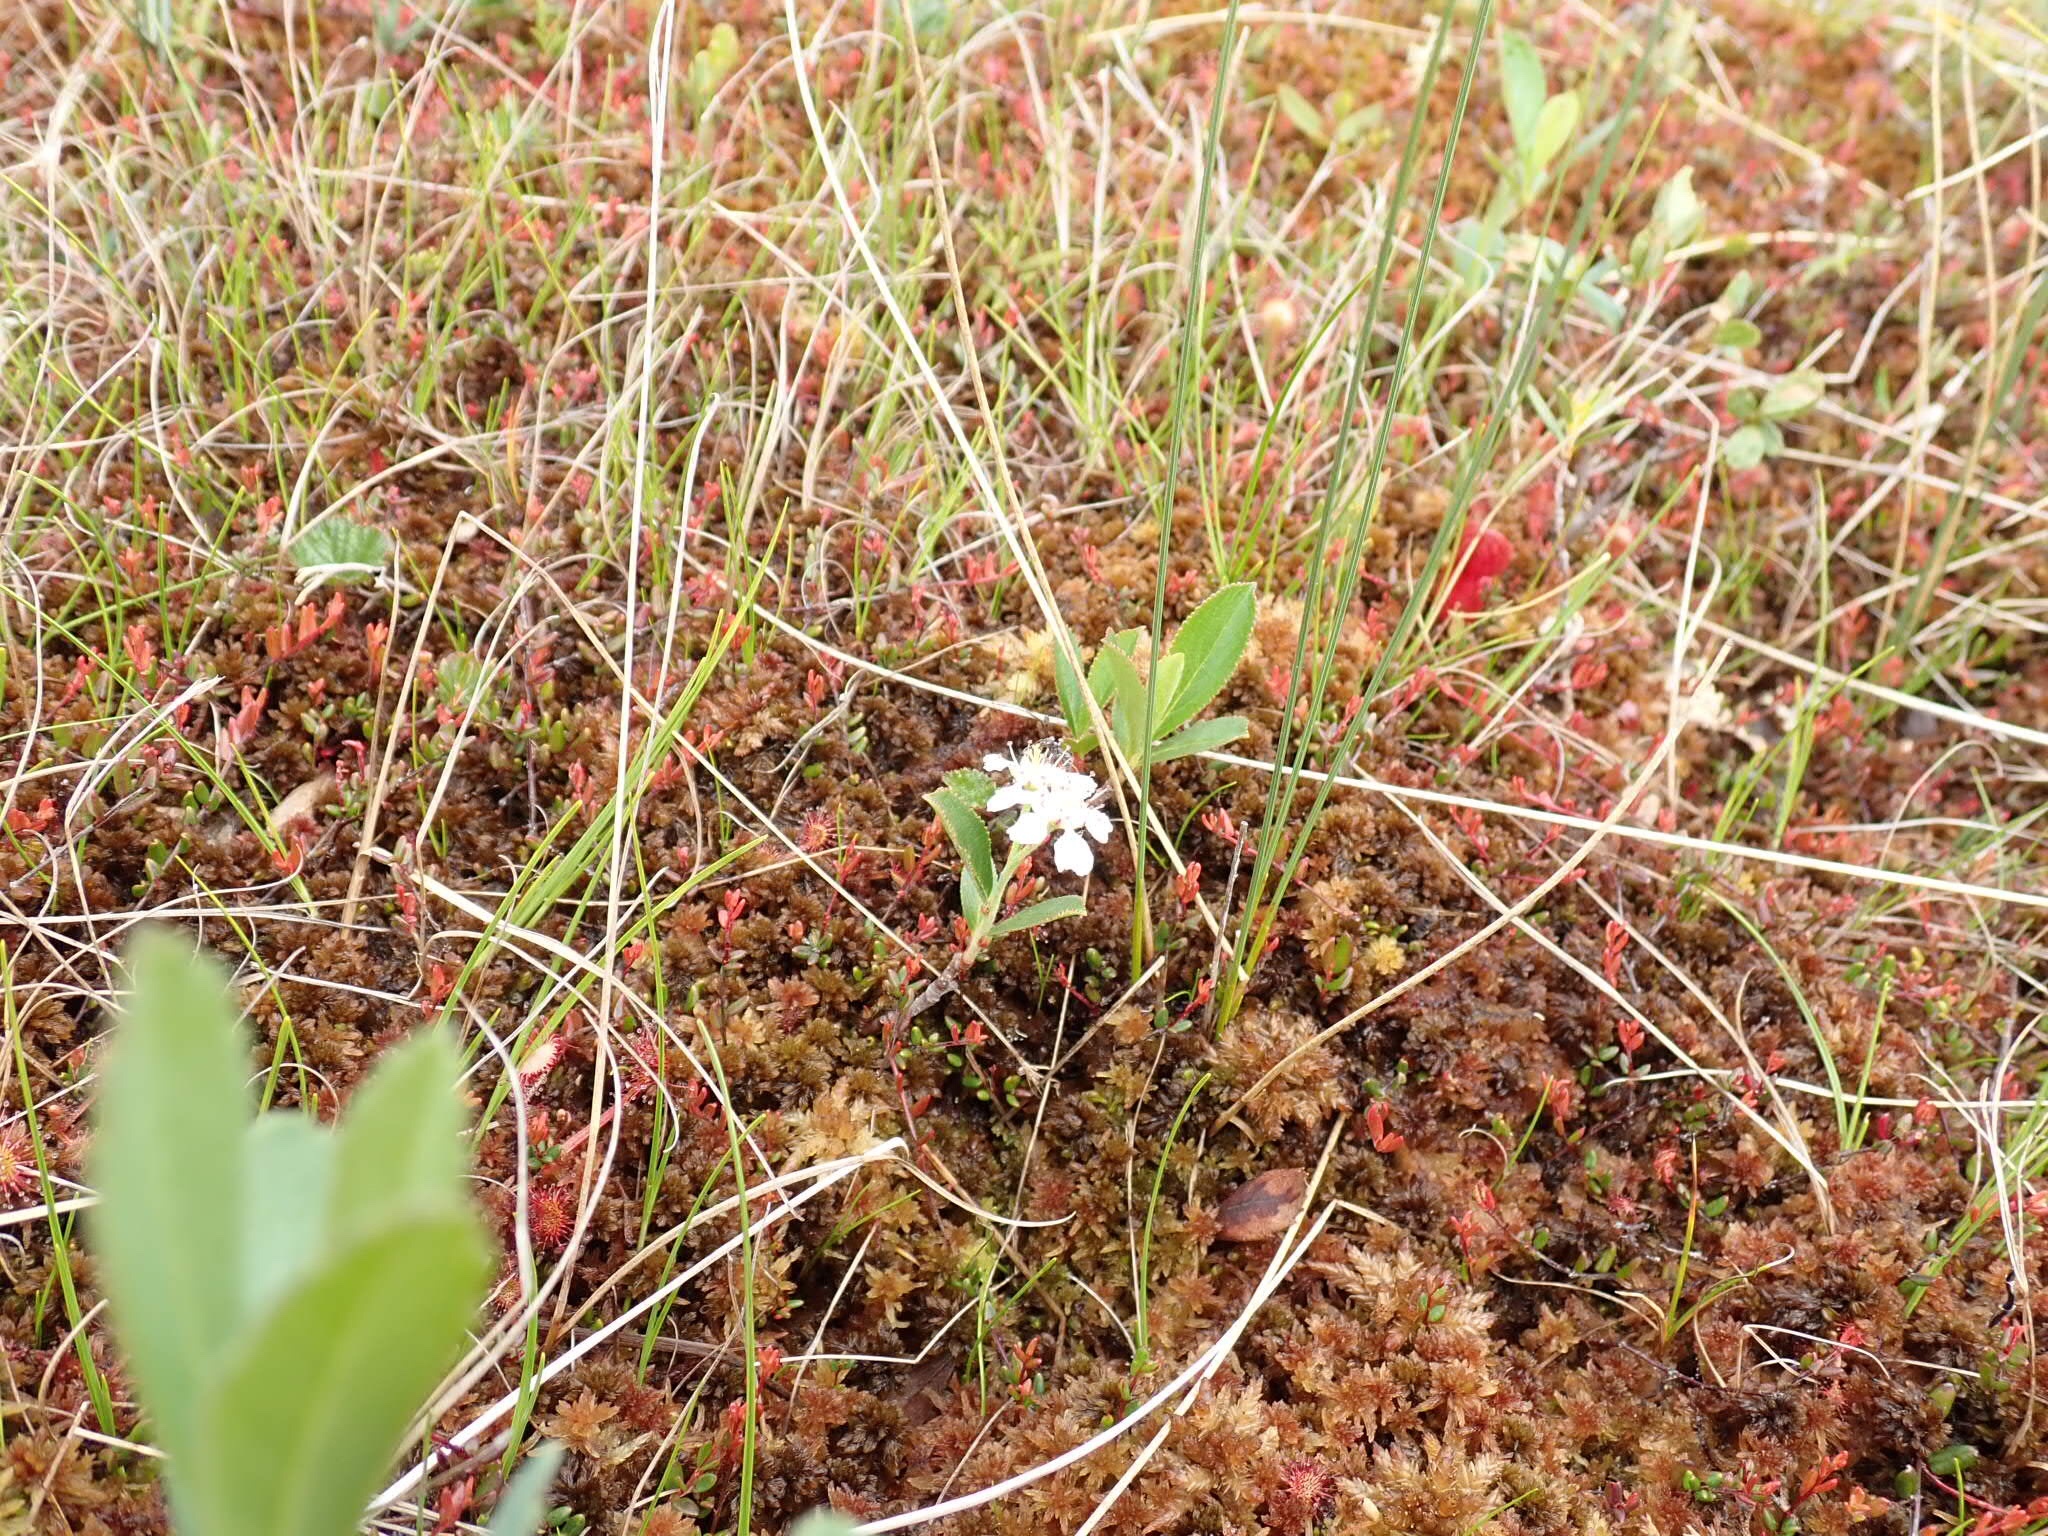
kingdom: Plantae
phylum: Tracheophyta
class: Magnoliopsida
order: Rosales
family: Rosaceae
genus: Aronia
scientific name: Aronia prunifolia
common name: Purple chokeberry
